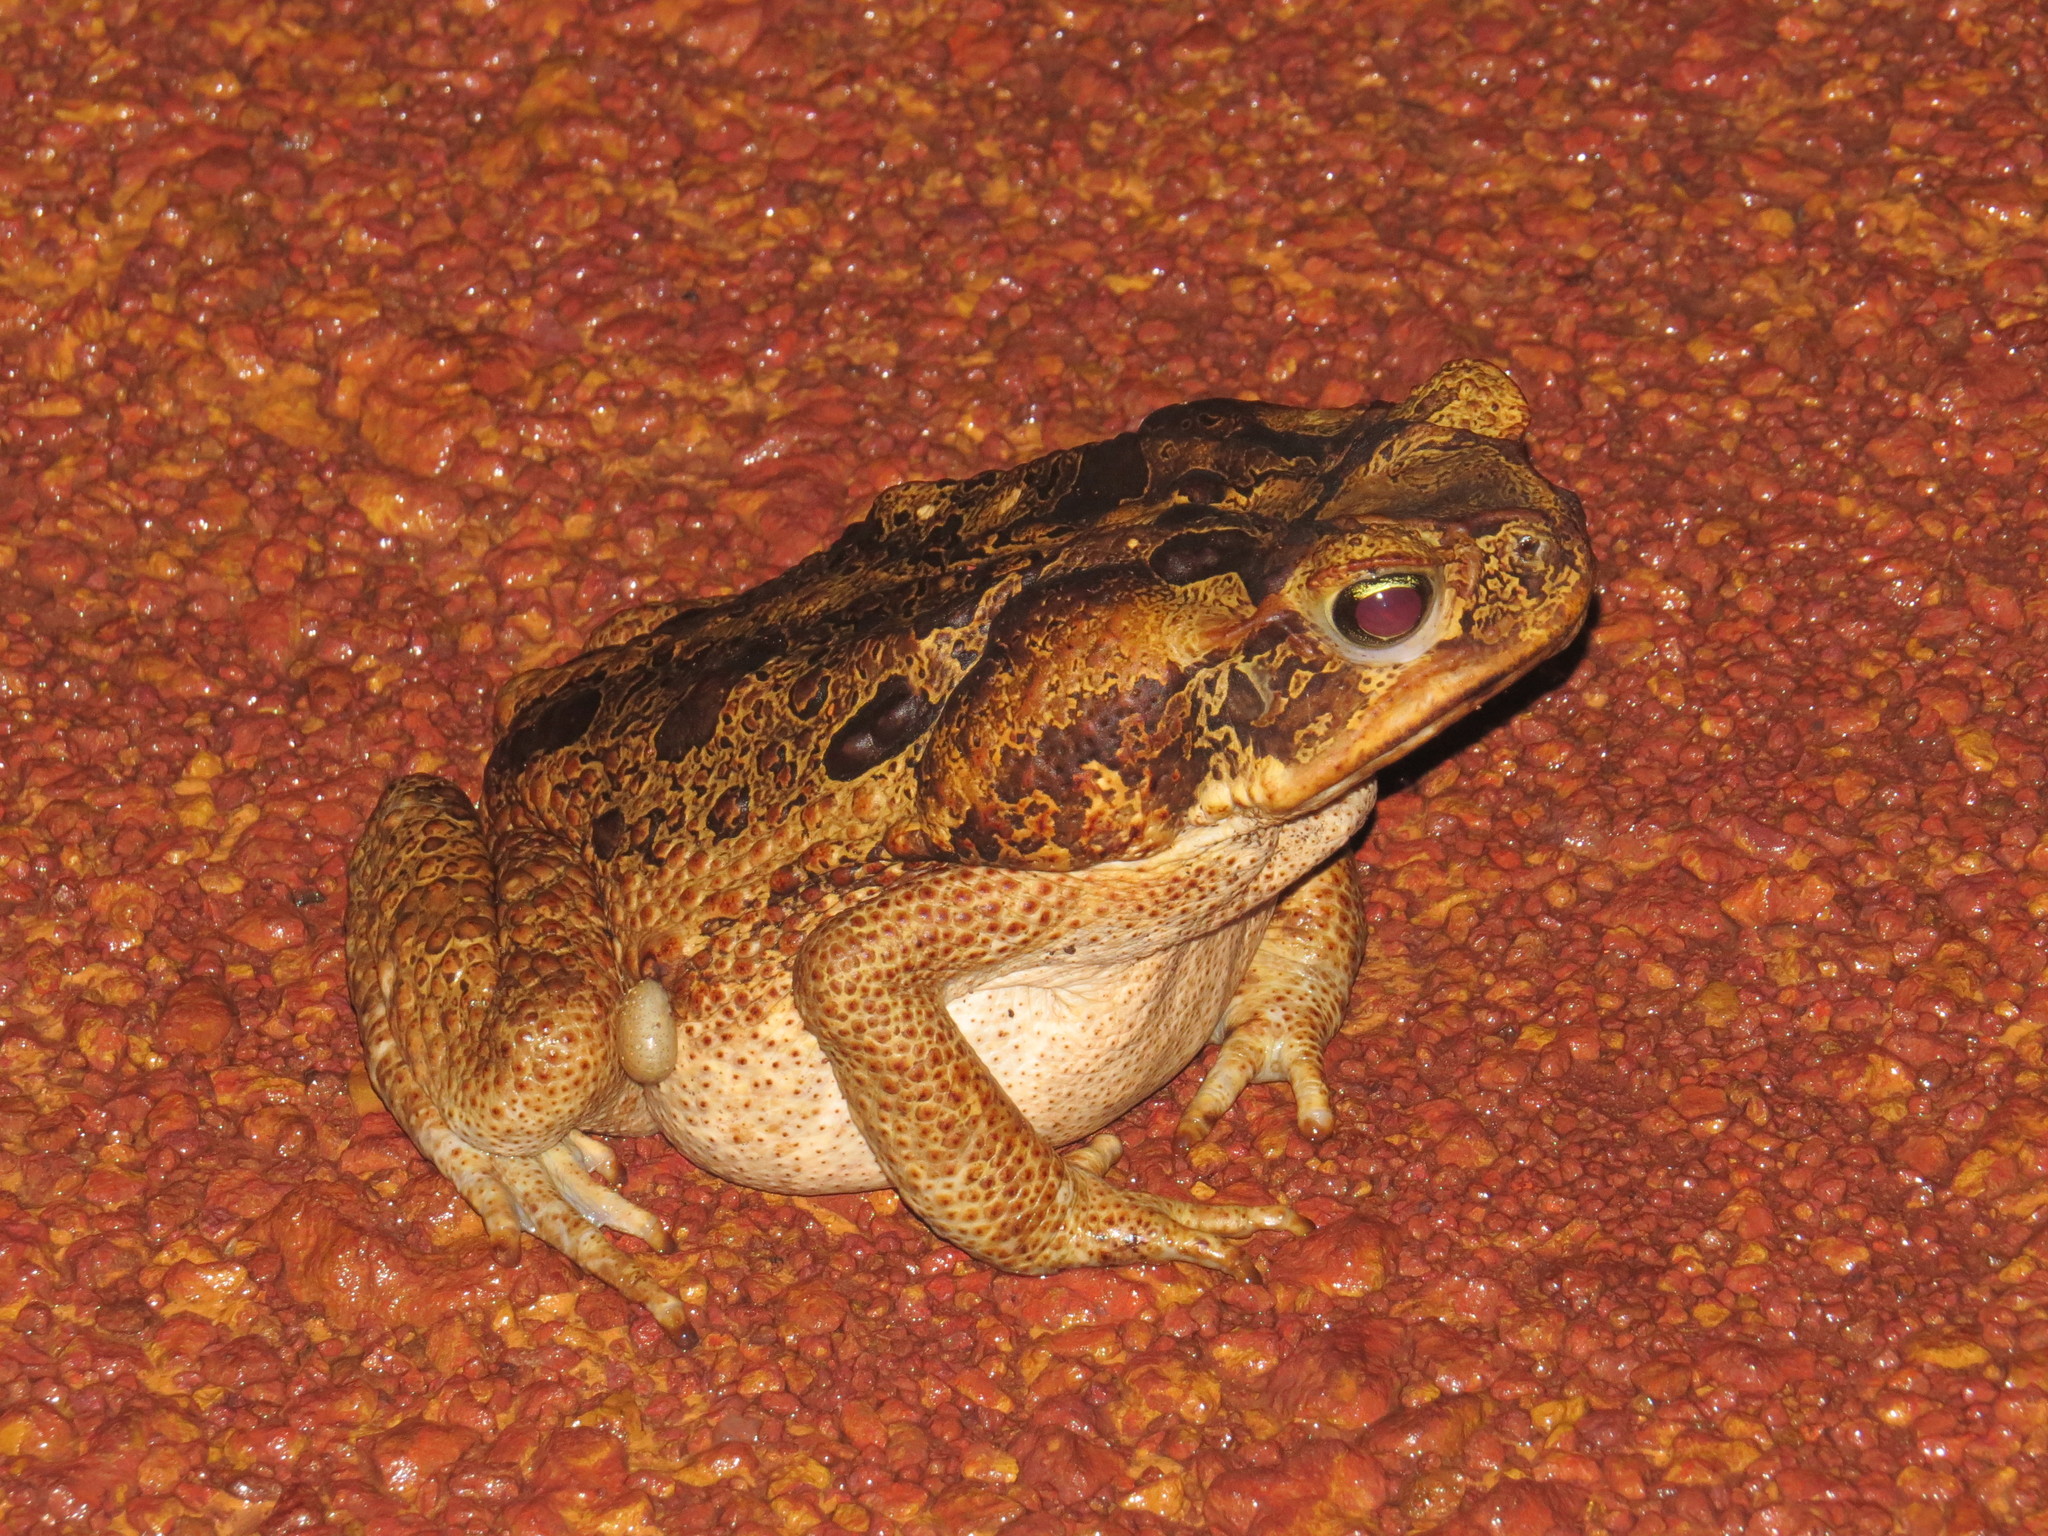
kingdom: Animalia
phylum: Chordata
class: Amphibia
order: Anura
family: Bufonidae
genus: Rhinella
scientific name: Rhinella marina
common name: Cane toad
